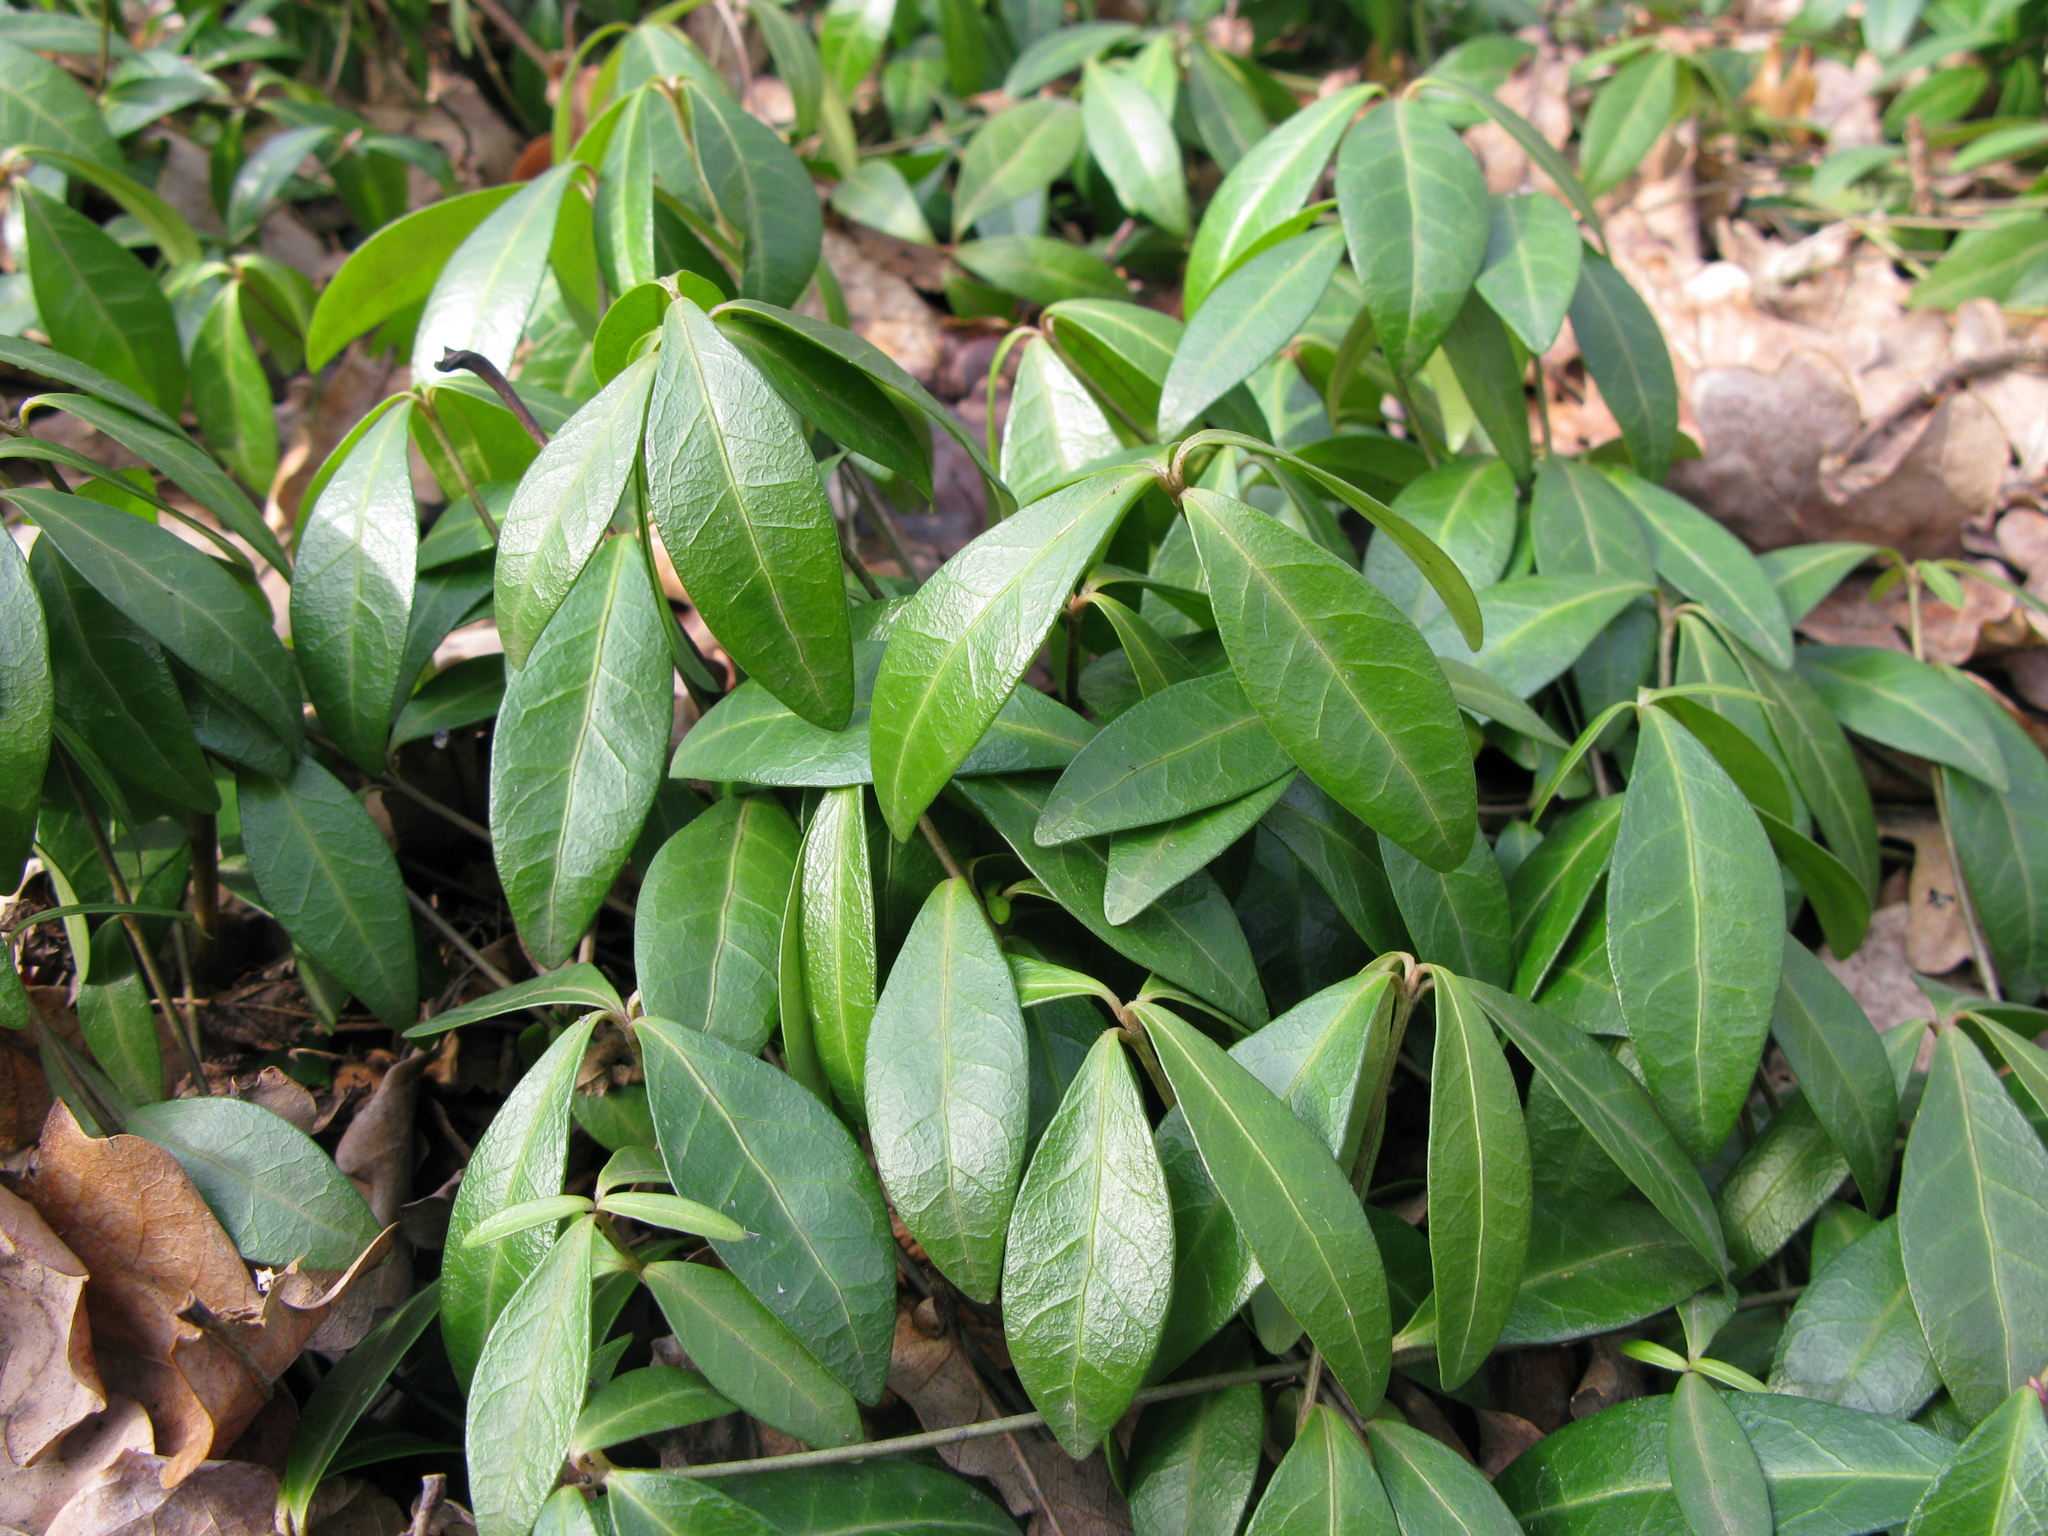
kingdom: Plantae
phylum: Tracheophyta
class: Magnoliopsida
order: Gentianales
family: Apocynaceae
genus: Vinca
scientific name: Vinca minor
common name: Lesser periwinkle
